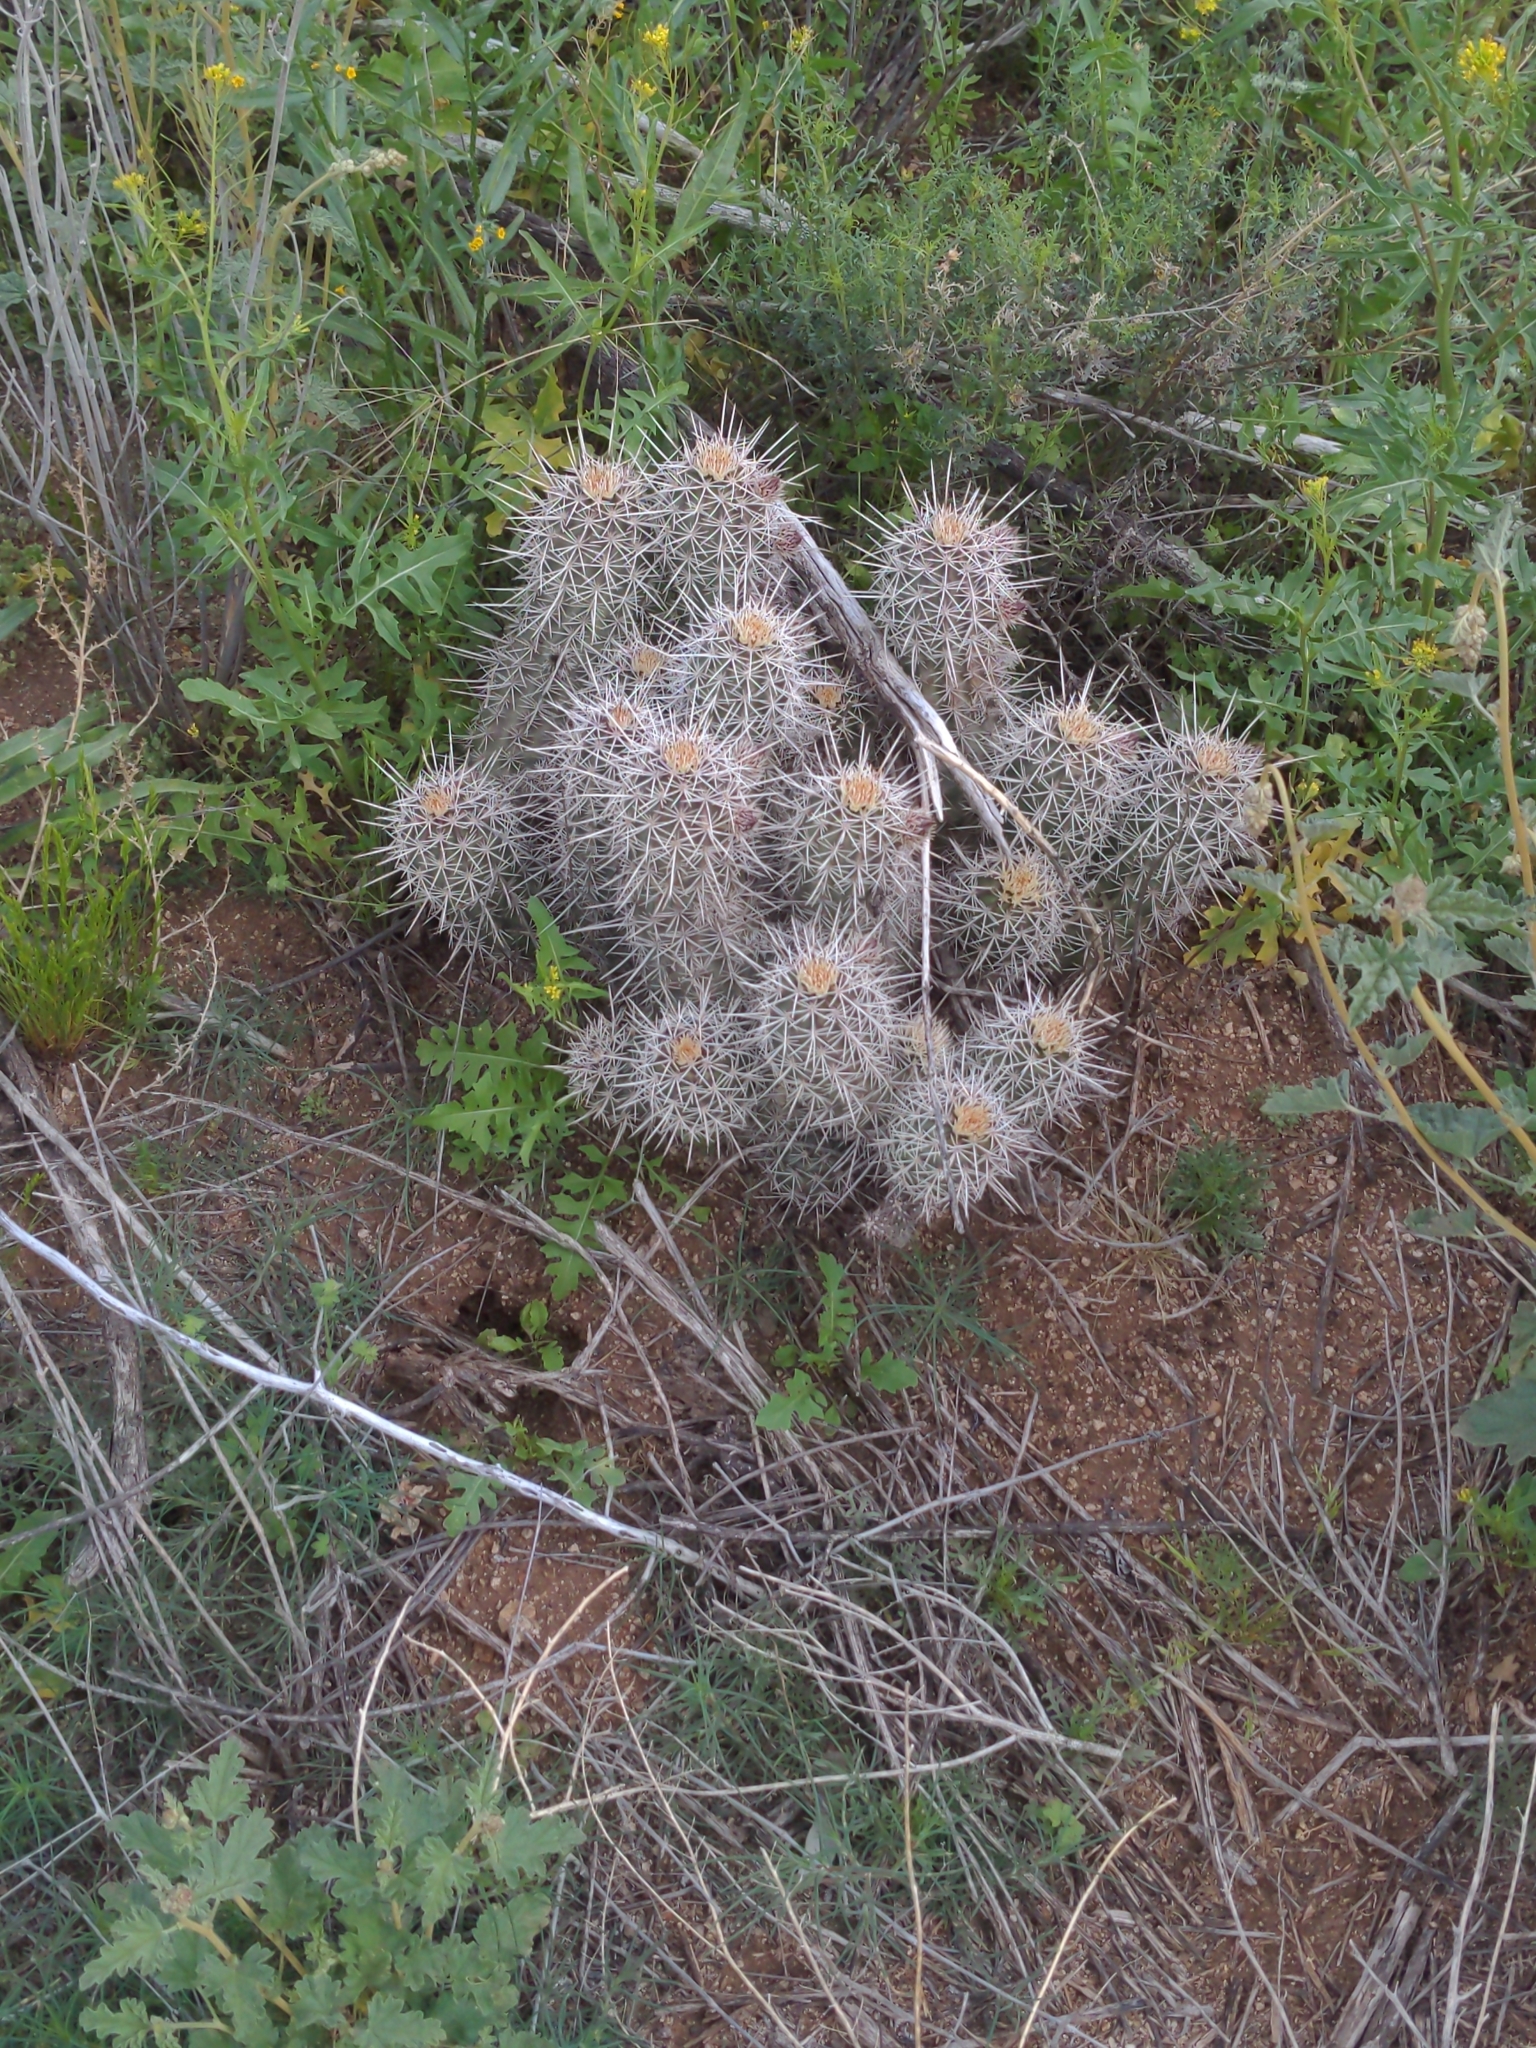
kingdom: Plantae
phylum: Tracheophyta
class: Magnoliopsida
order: Caryophyllales
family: Cactaceae
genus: Echinocereus
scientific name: Echinocereus fasciculatus
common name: Bundle hedgehog
